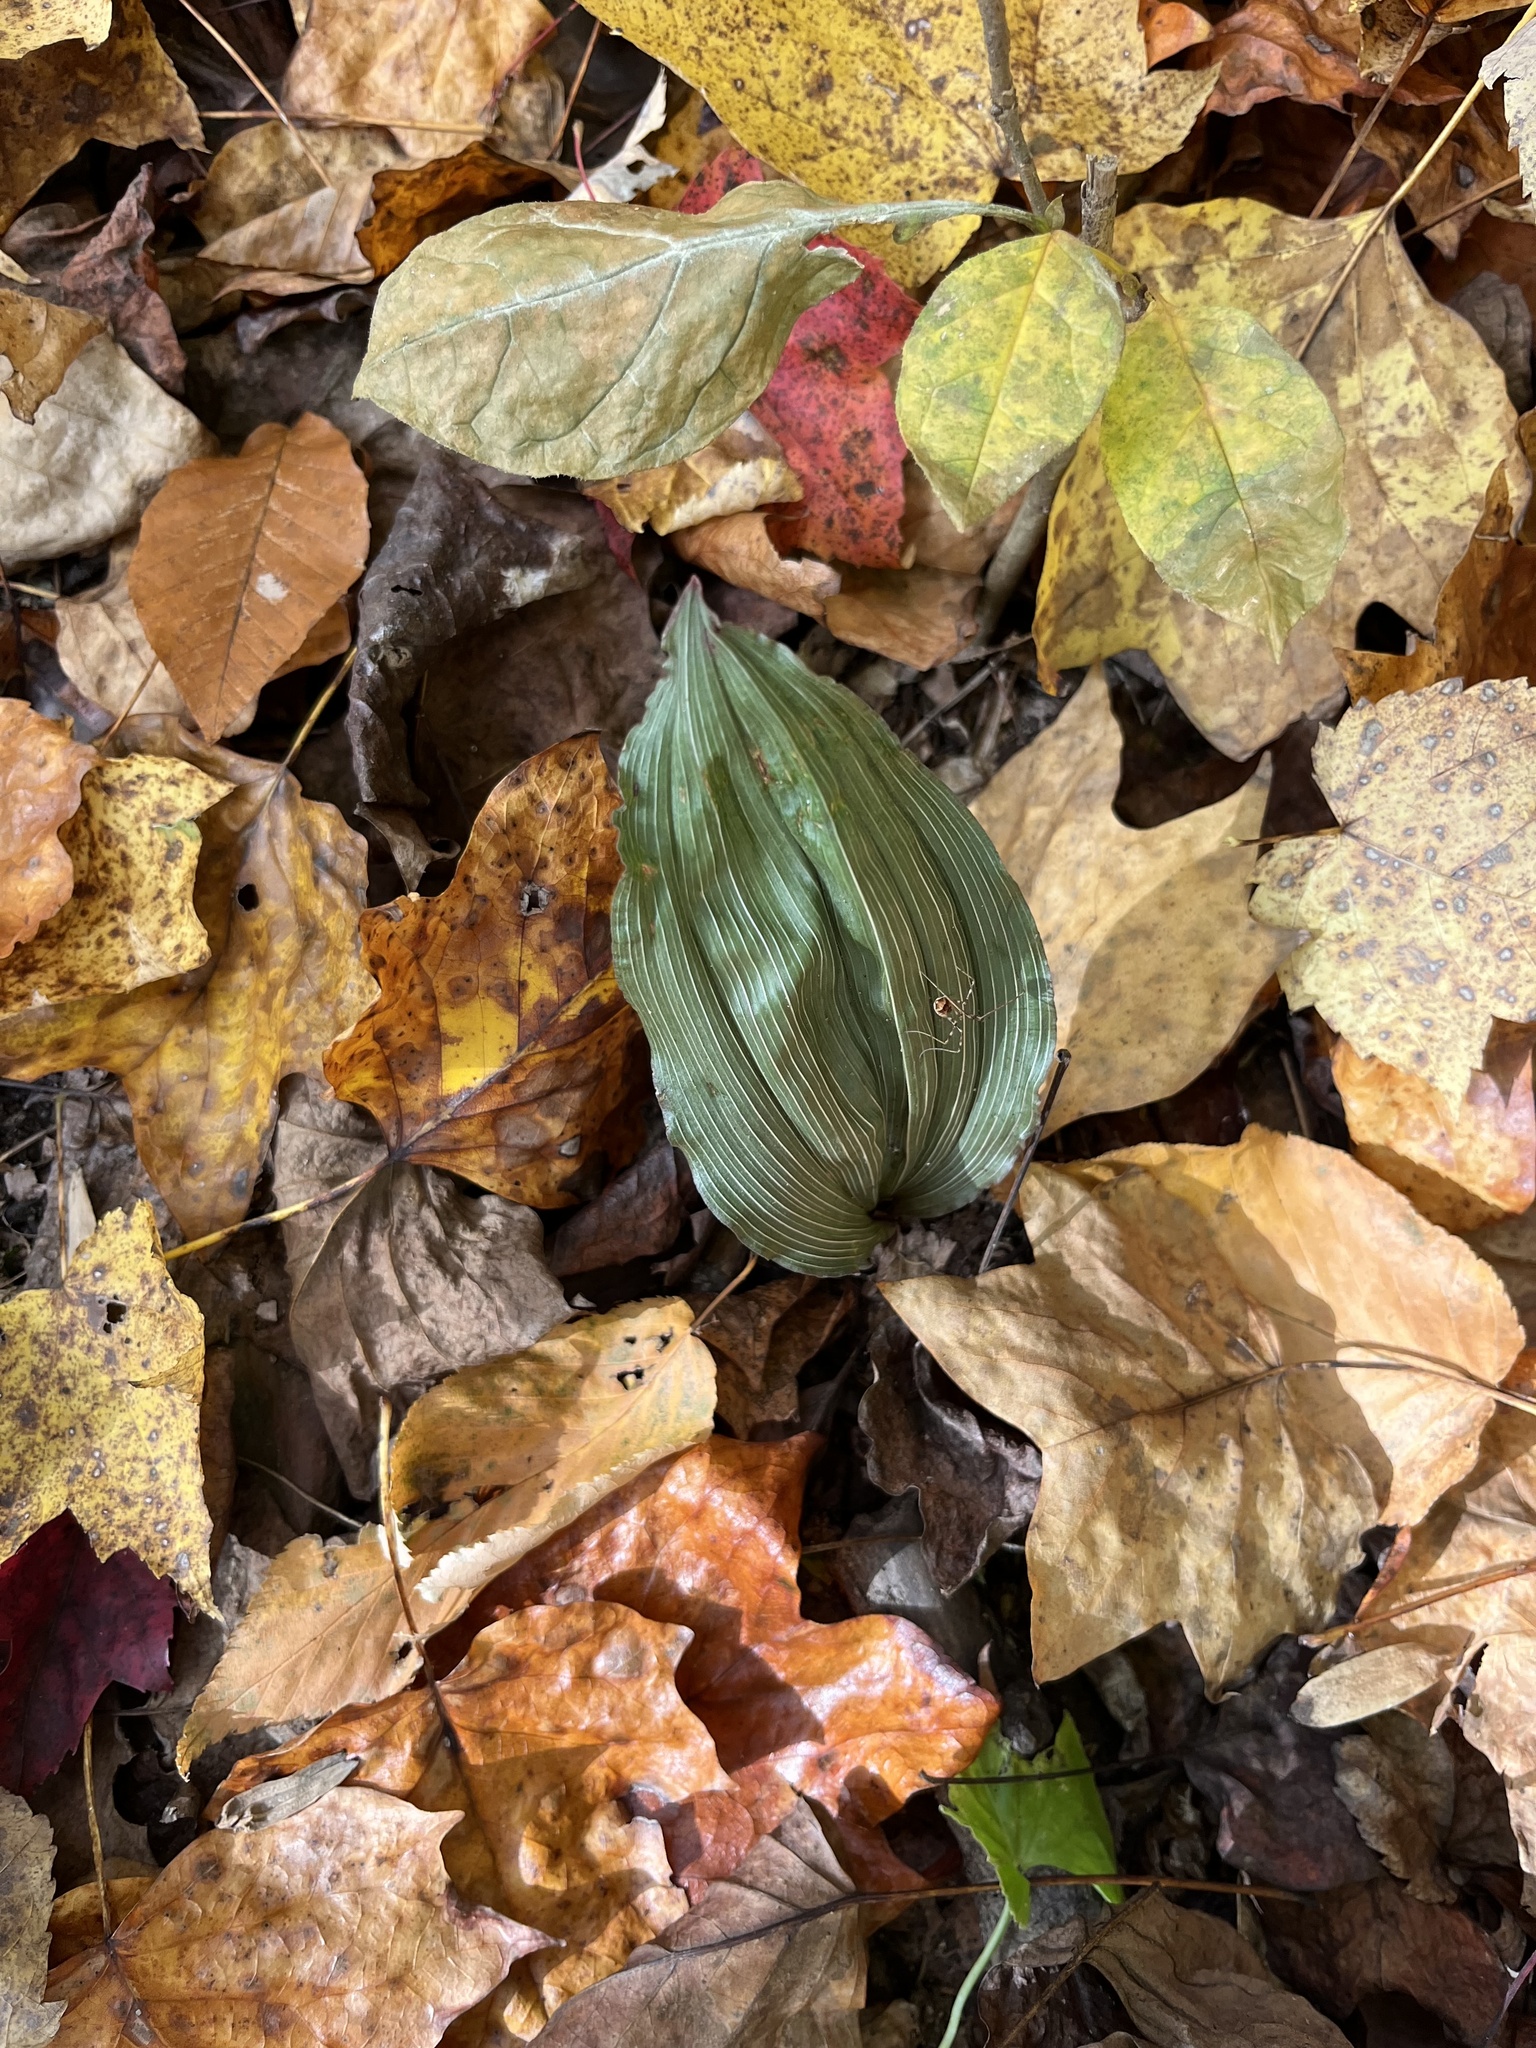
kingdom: Plantae
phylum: Tracheophyta
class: Liliopsida
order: Asparagales
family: Orchidaceae
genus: Aplectrum
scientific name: Aplectrum hyemale
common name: Adam-and-eve
